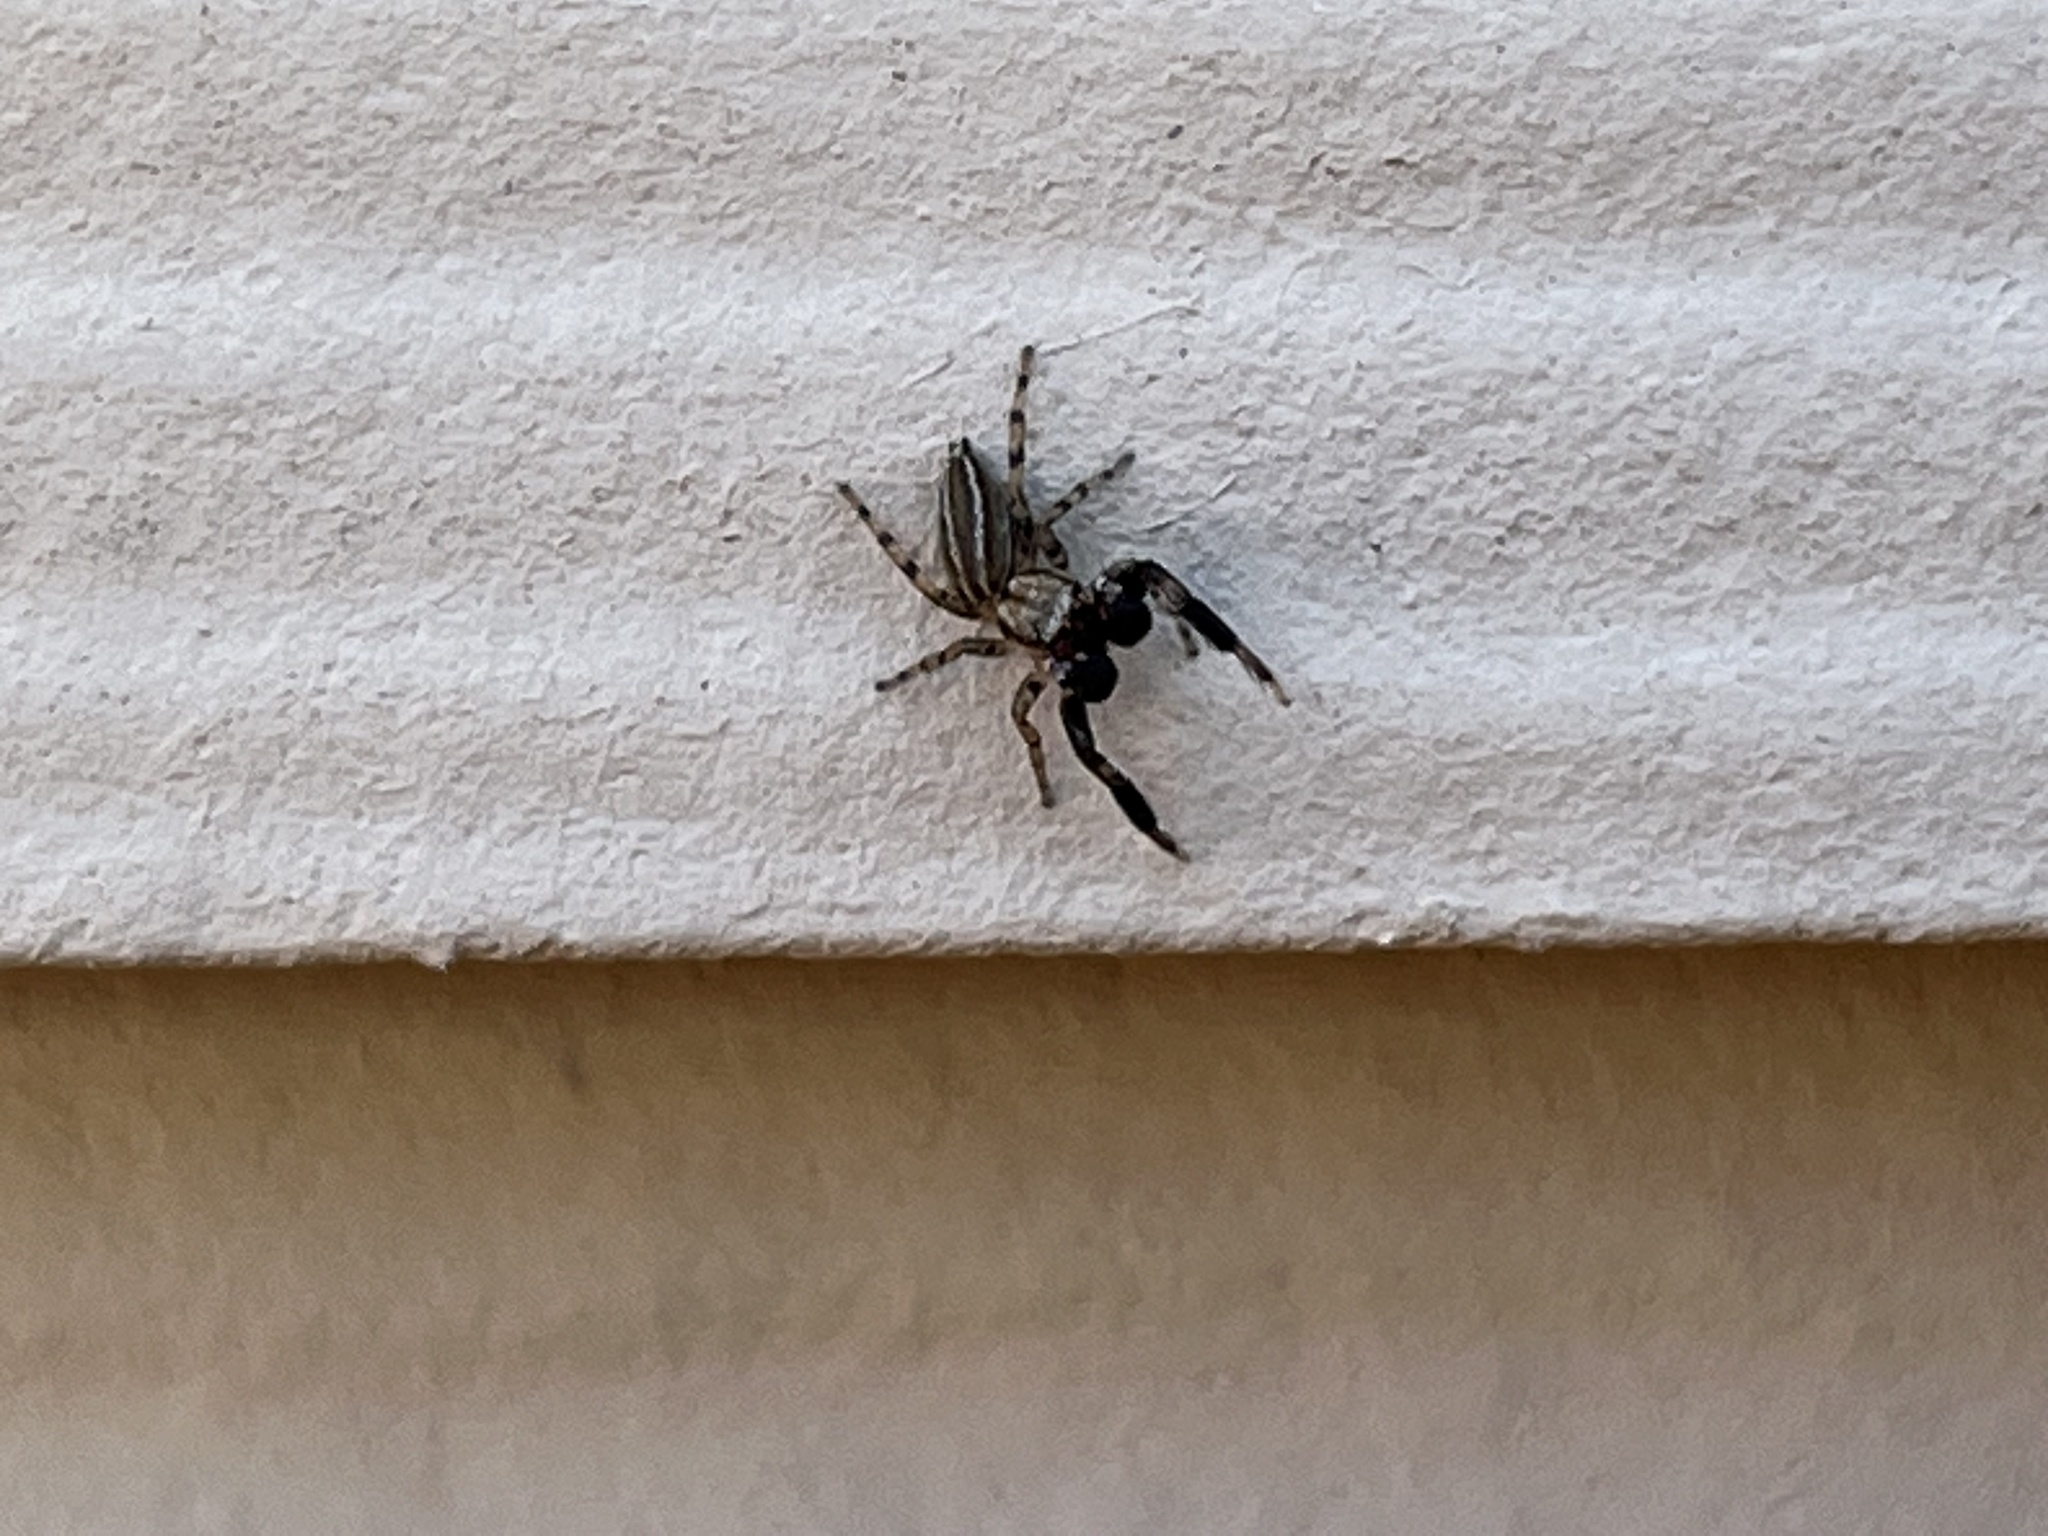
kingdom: Animalia
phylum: Arthropoda
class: Arachnida
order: Araneae
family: Salticidae
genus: Marpissa
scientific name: Marpissa lineata
